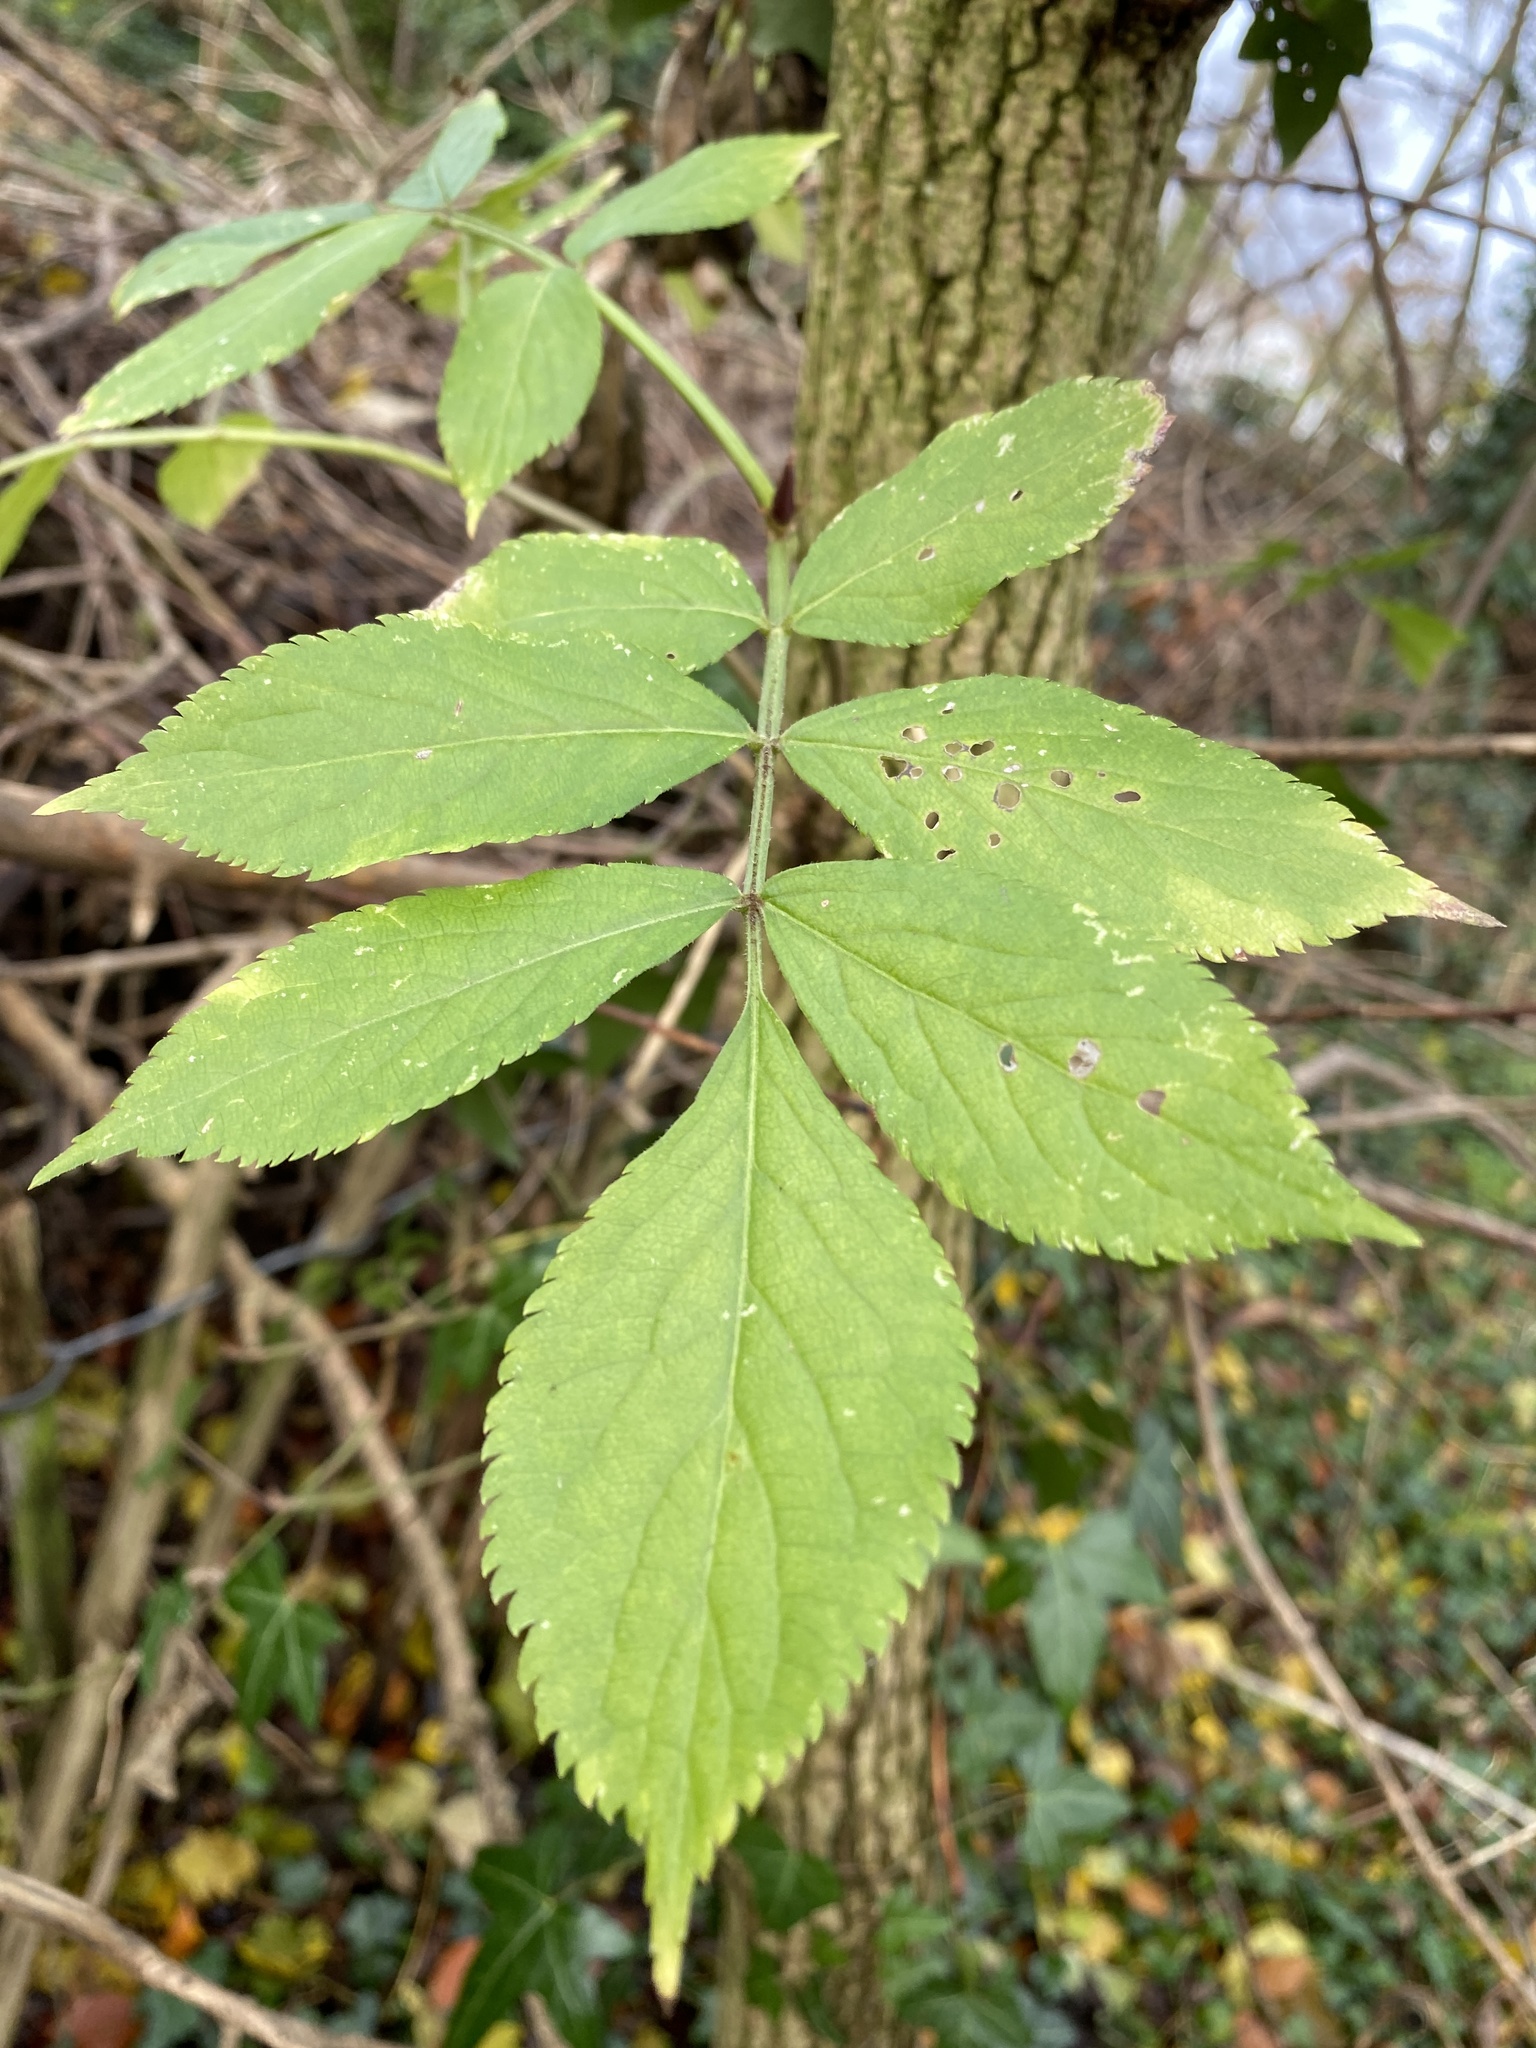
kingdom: Plantae
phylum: Tracheophyta
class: Magnoliopsida
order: Dipsacales
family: Viburnaceae
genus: Sambucus
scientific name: Sambucus nigra
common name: Elder
